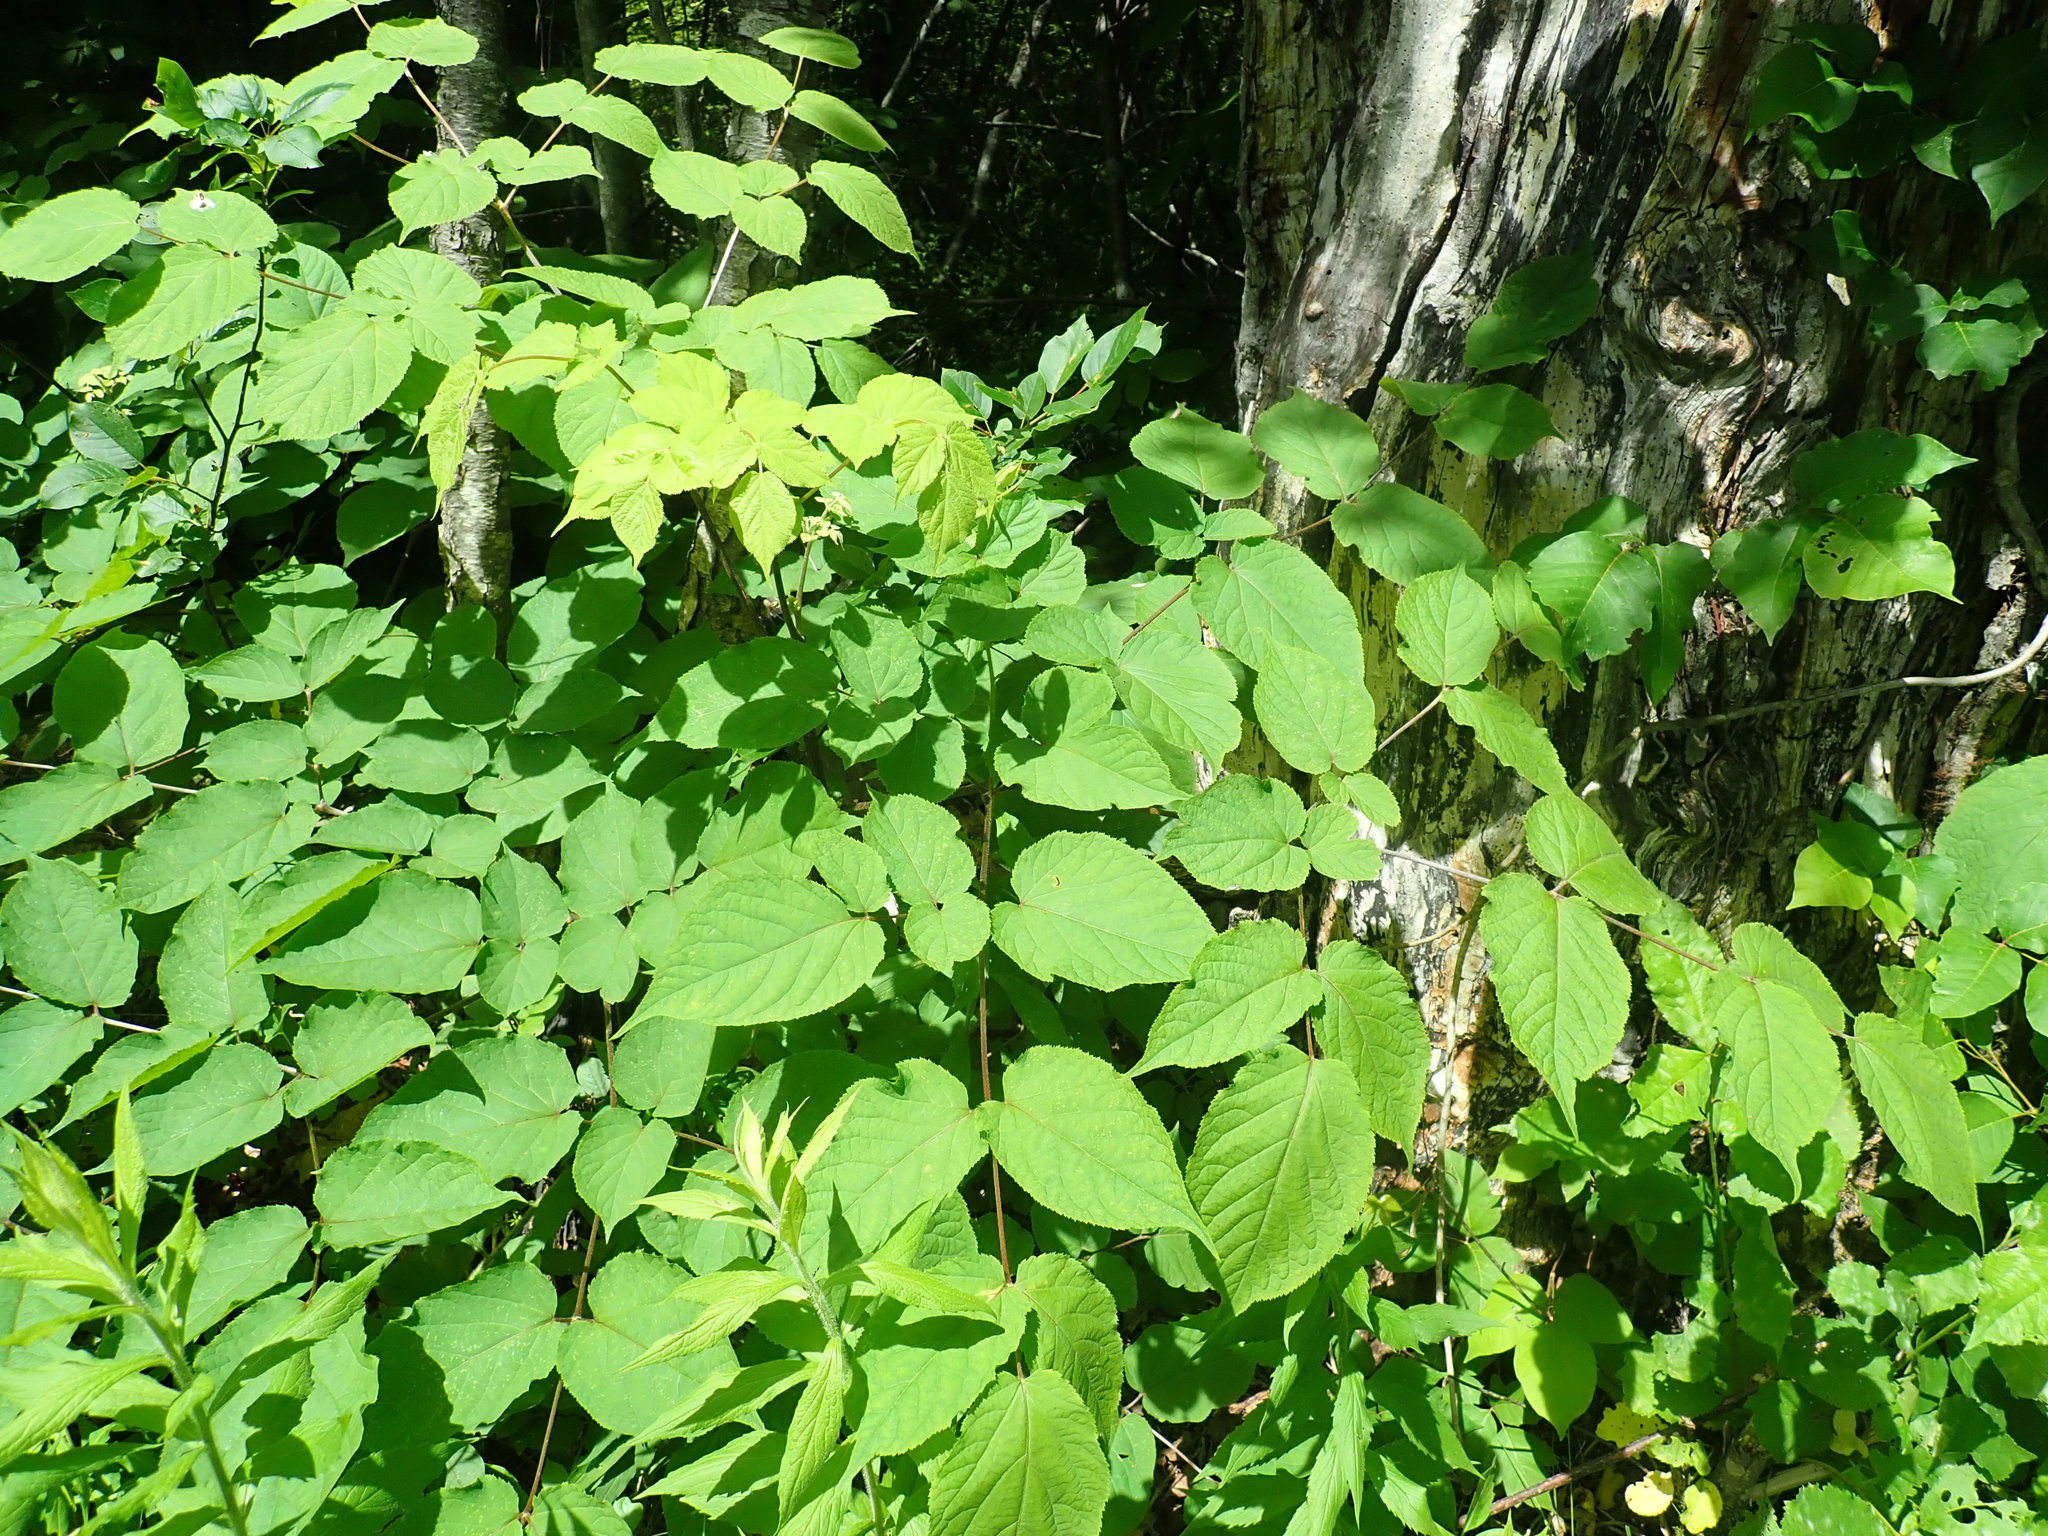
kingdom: Plantae
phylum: Tracheophyta
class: Magnoliopsida
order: Apiales
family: Araliaceae
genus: Aralia
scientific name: Aralia racemosa
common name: American-spikenard
